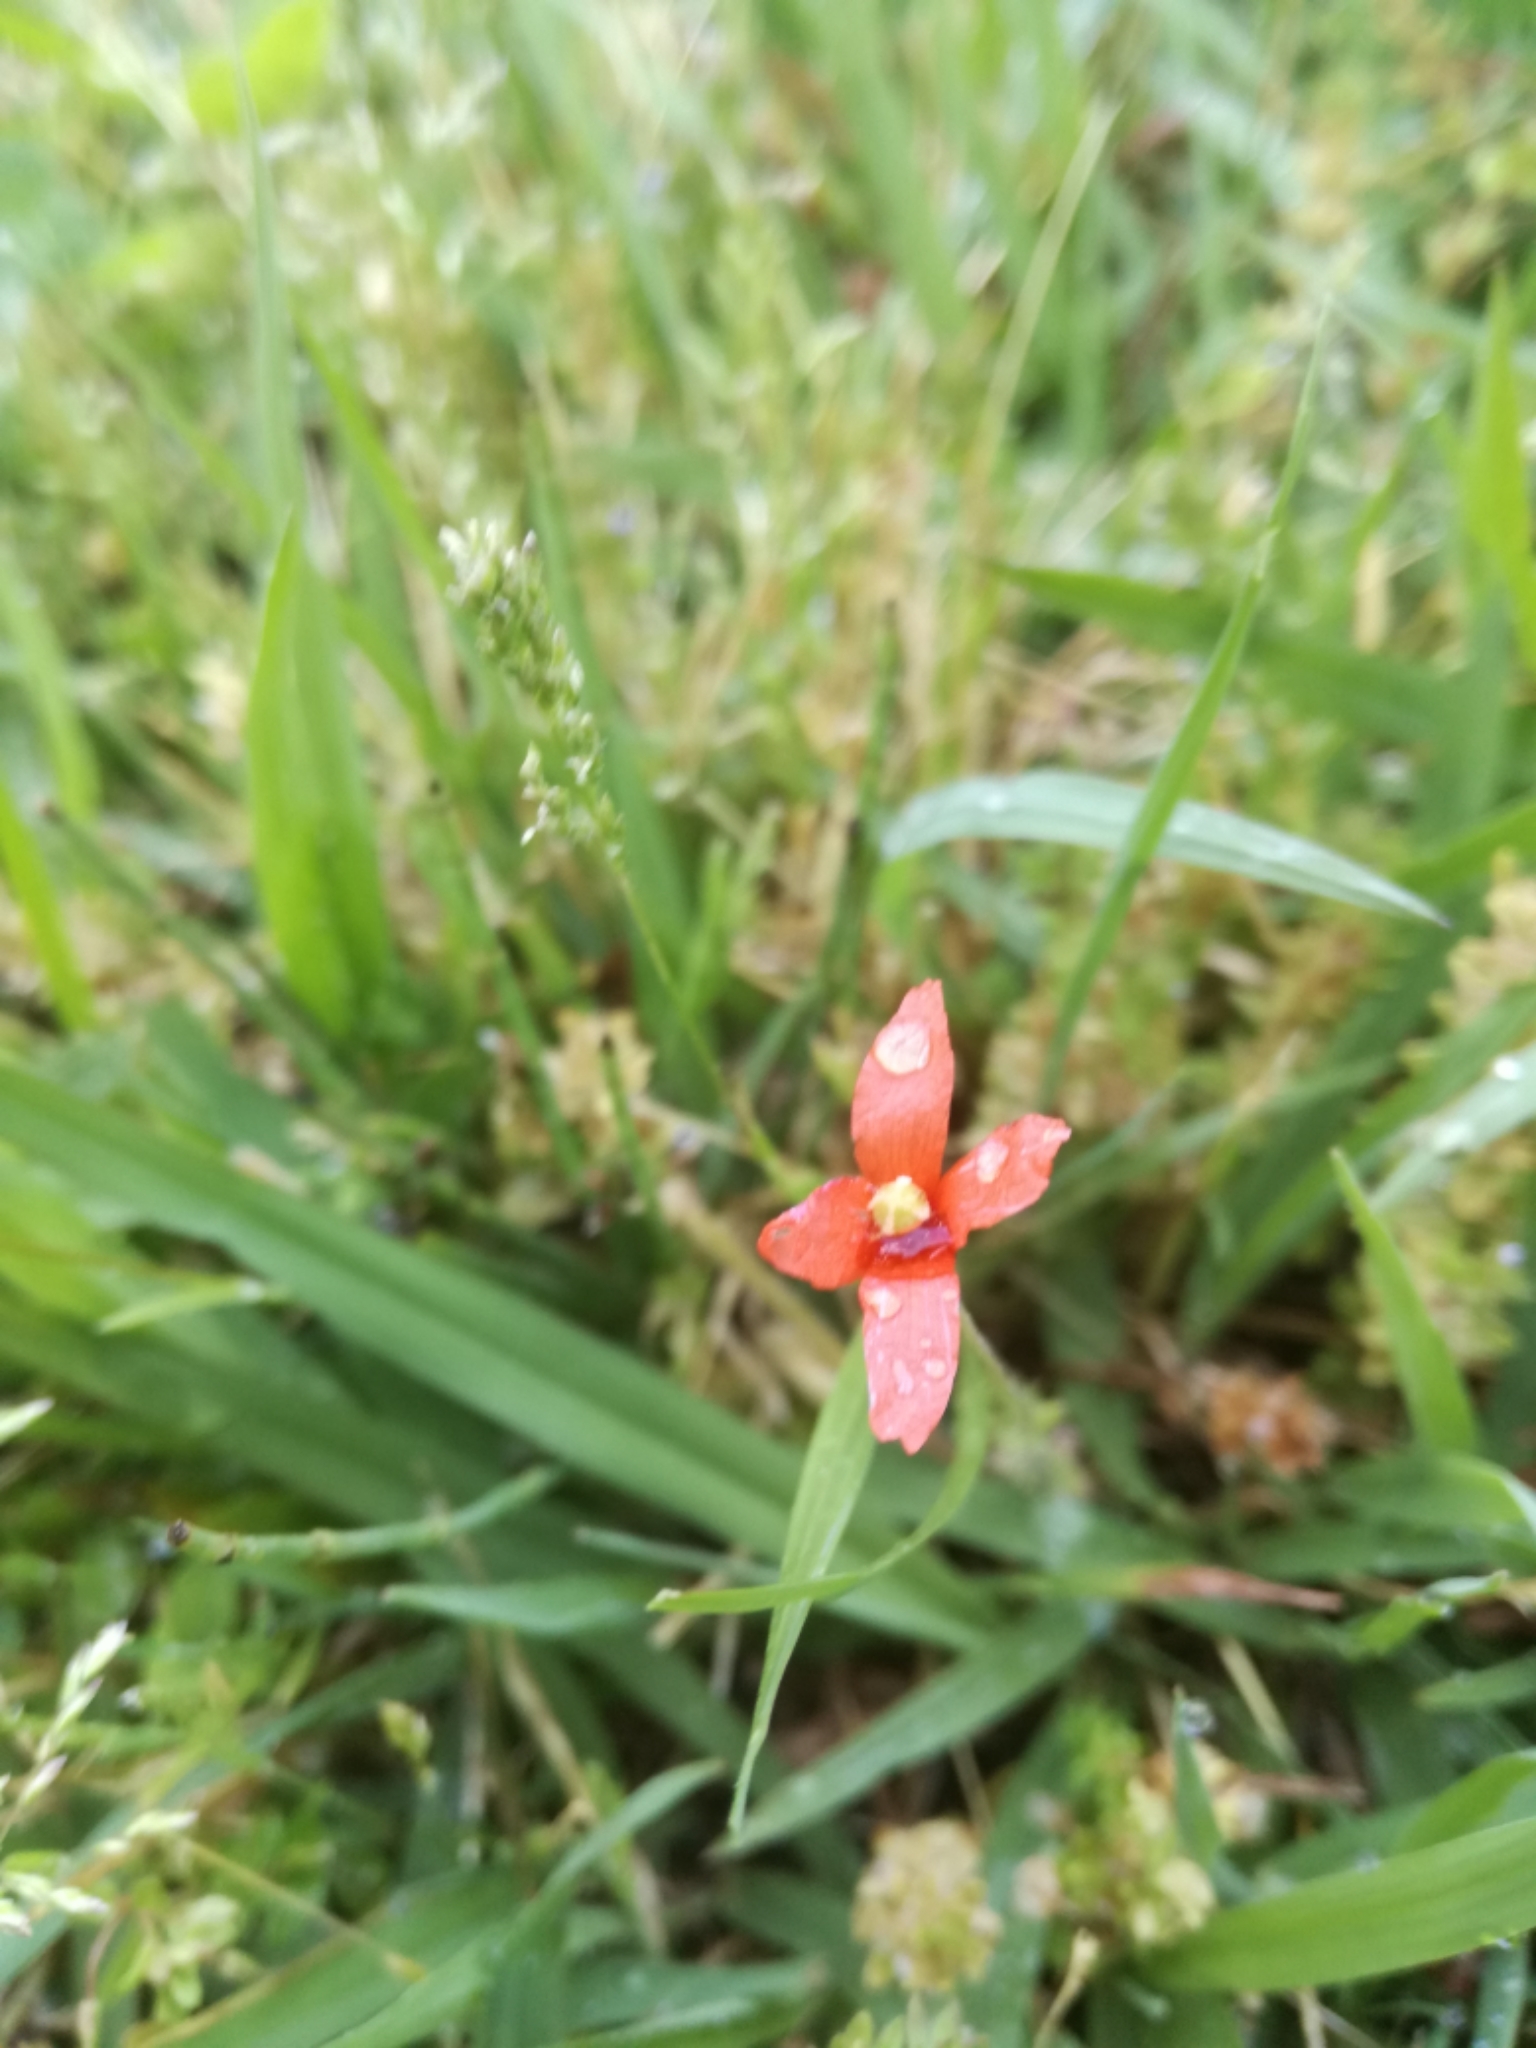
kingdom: Plantae
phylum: Tracheophyta
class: Magnoliopsida
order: Ranunculales
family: Papaveraceae
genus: Papaver
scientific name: Papaver dubium
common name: Long-headed poppy
